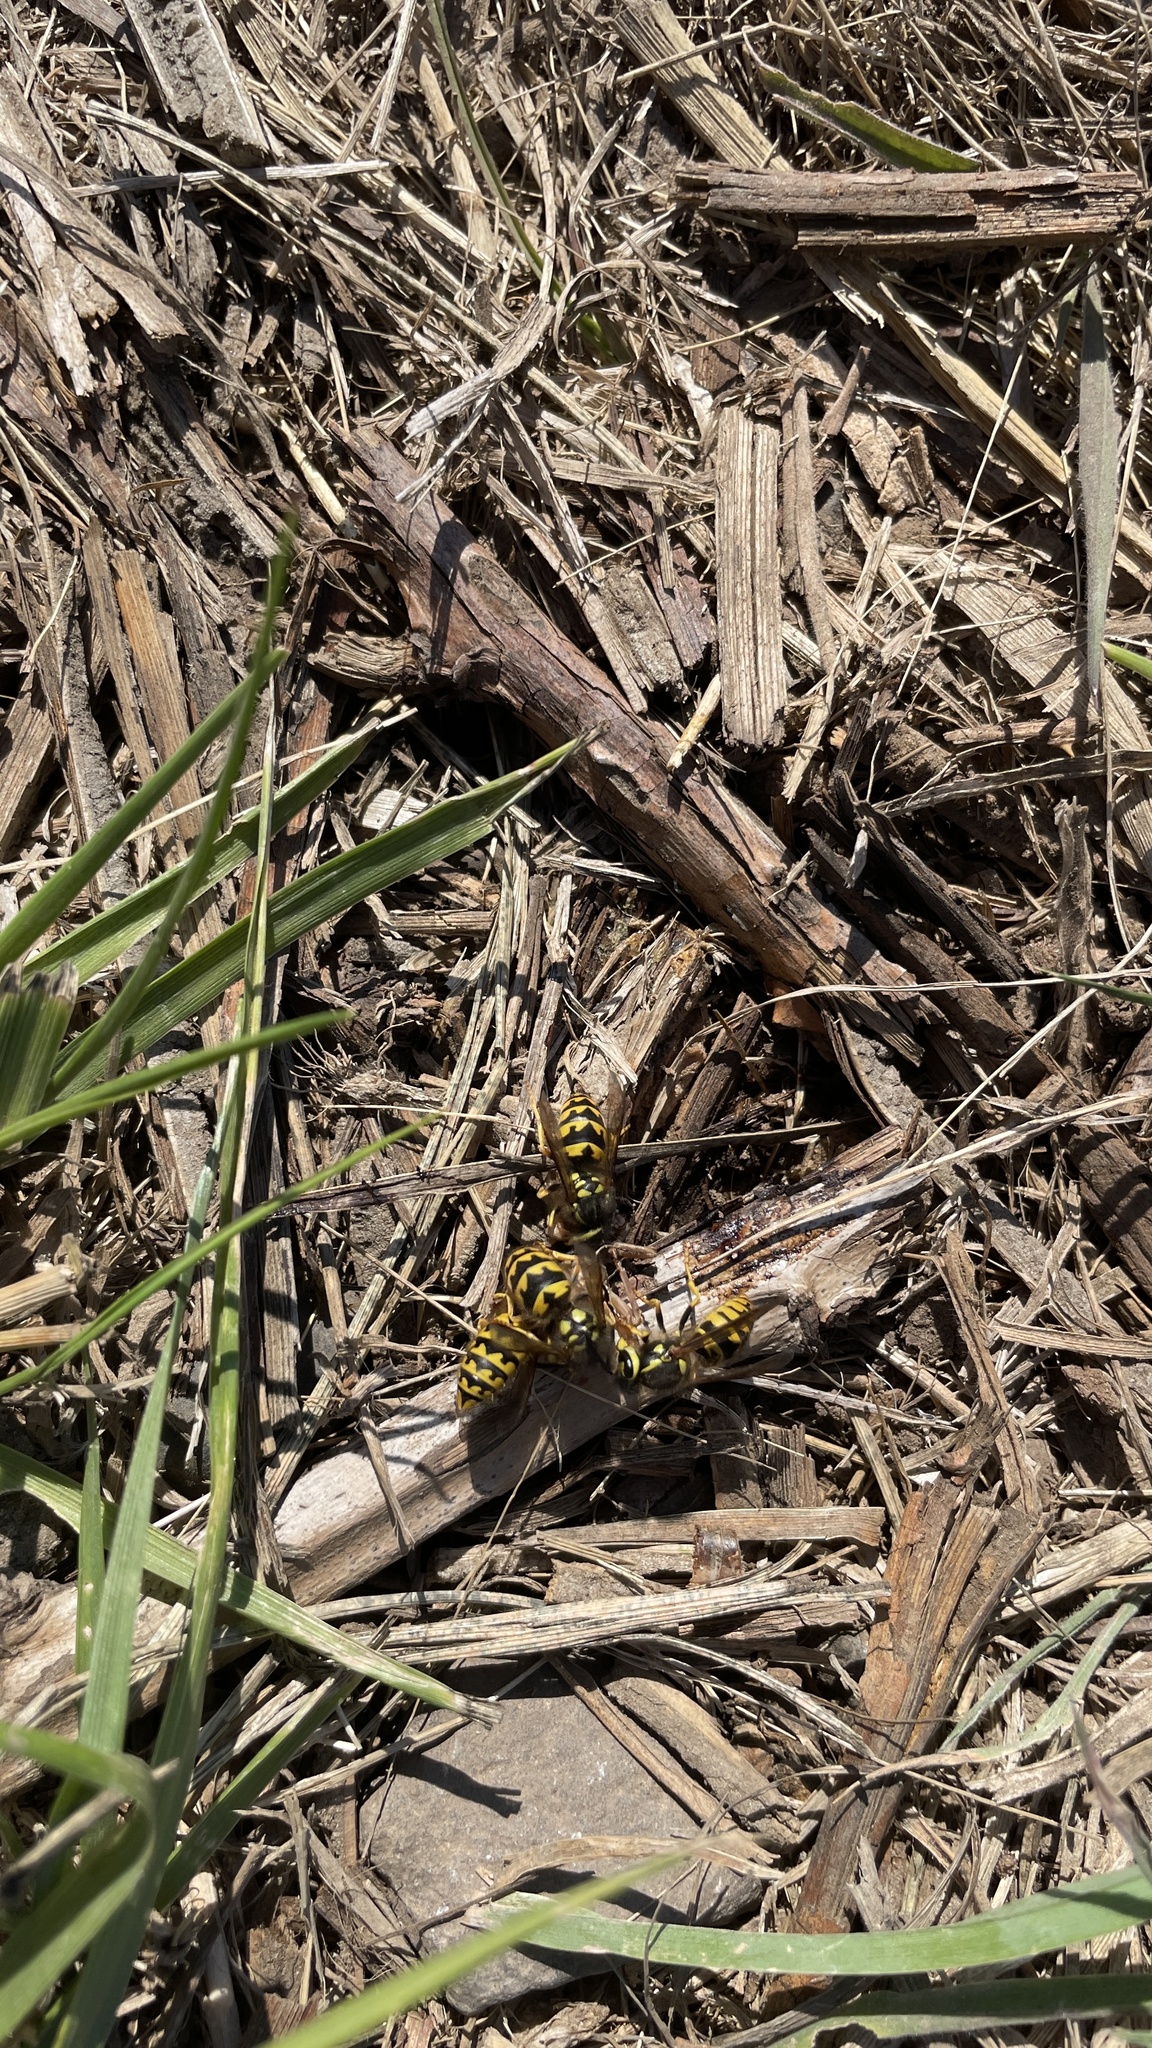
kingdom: Animalia
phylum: Arthropoda
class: Insecta
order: Hymenoptera
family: Vespidae
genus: Vespula
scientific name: Vespula pensylvanica
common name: Western yellowjacket
